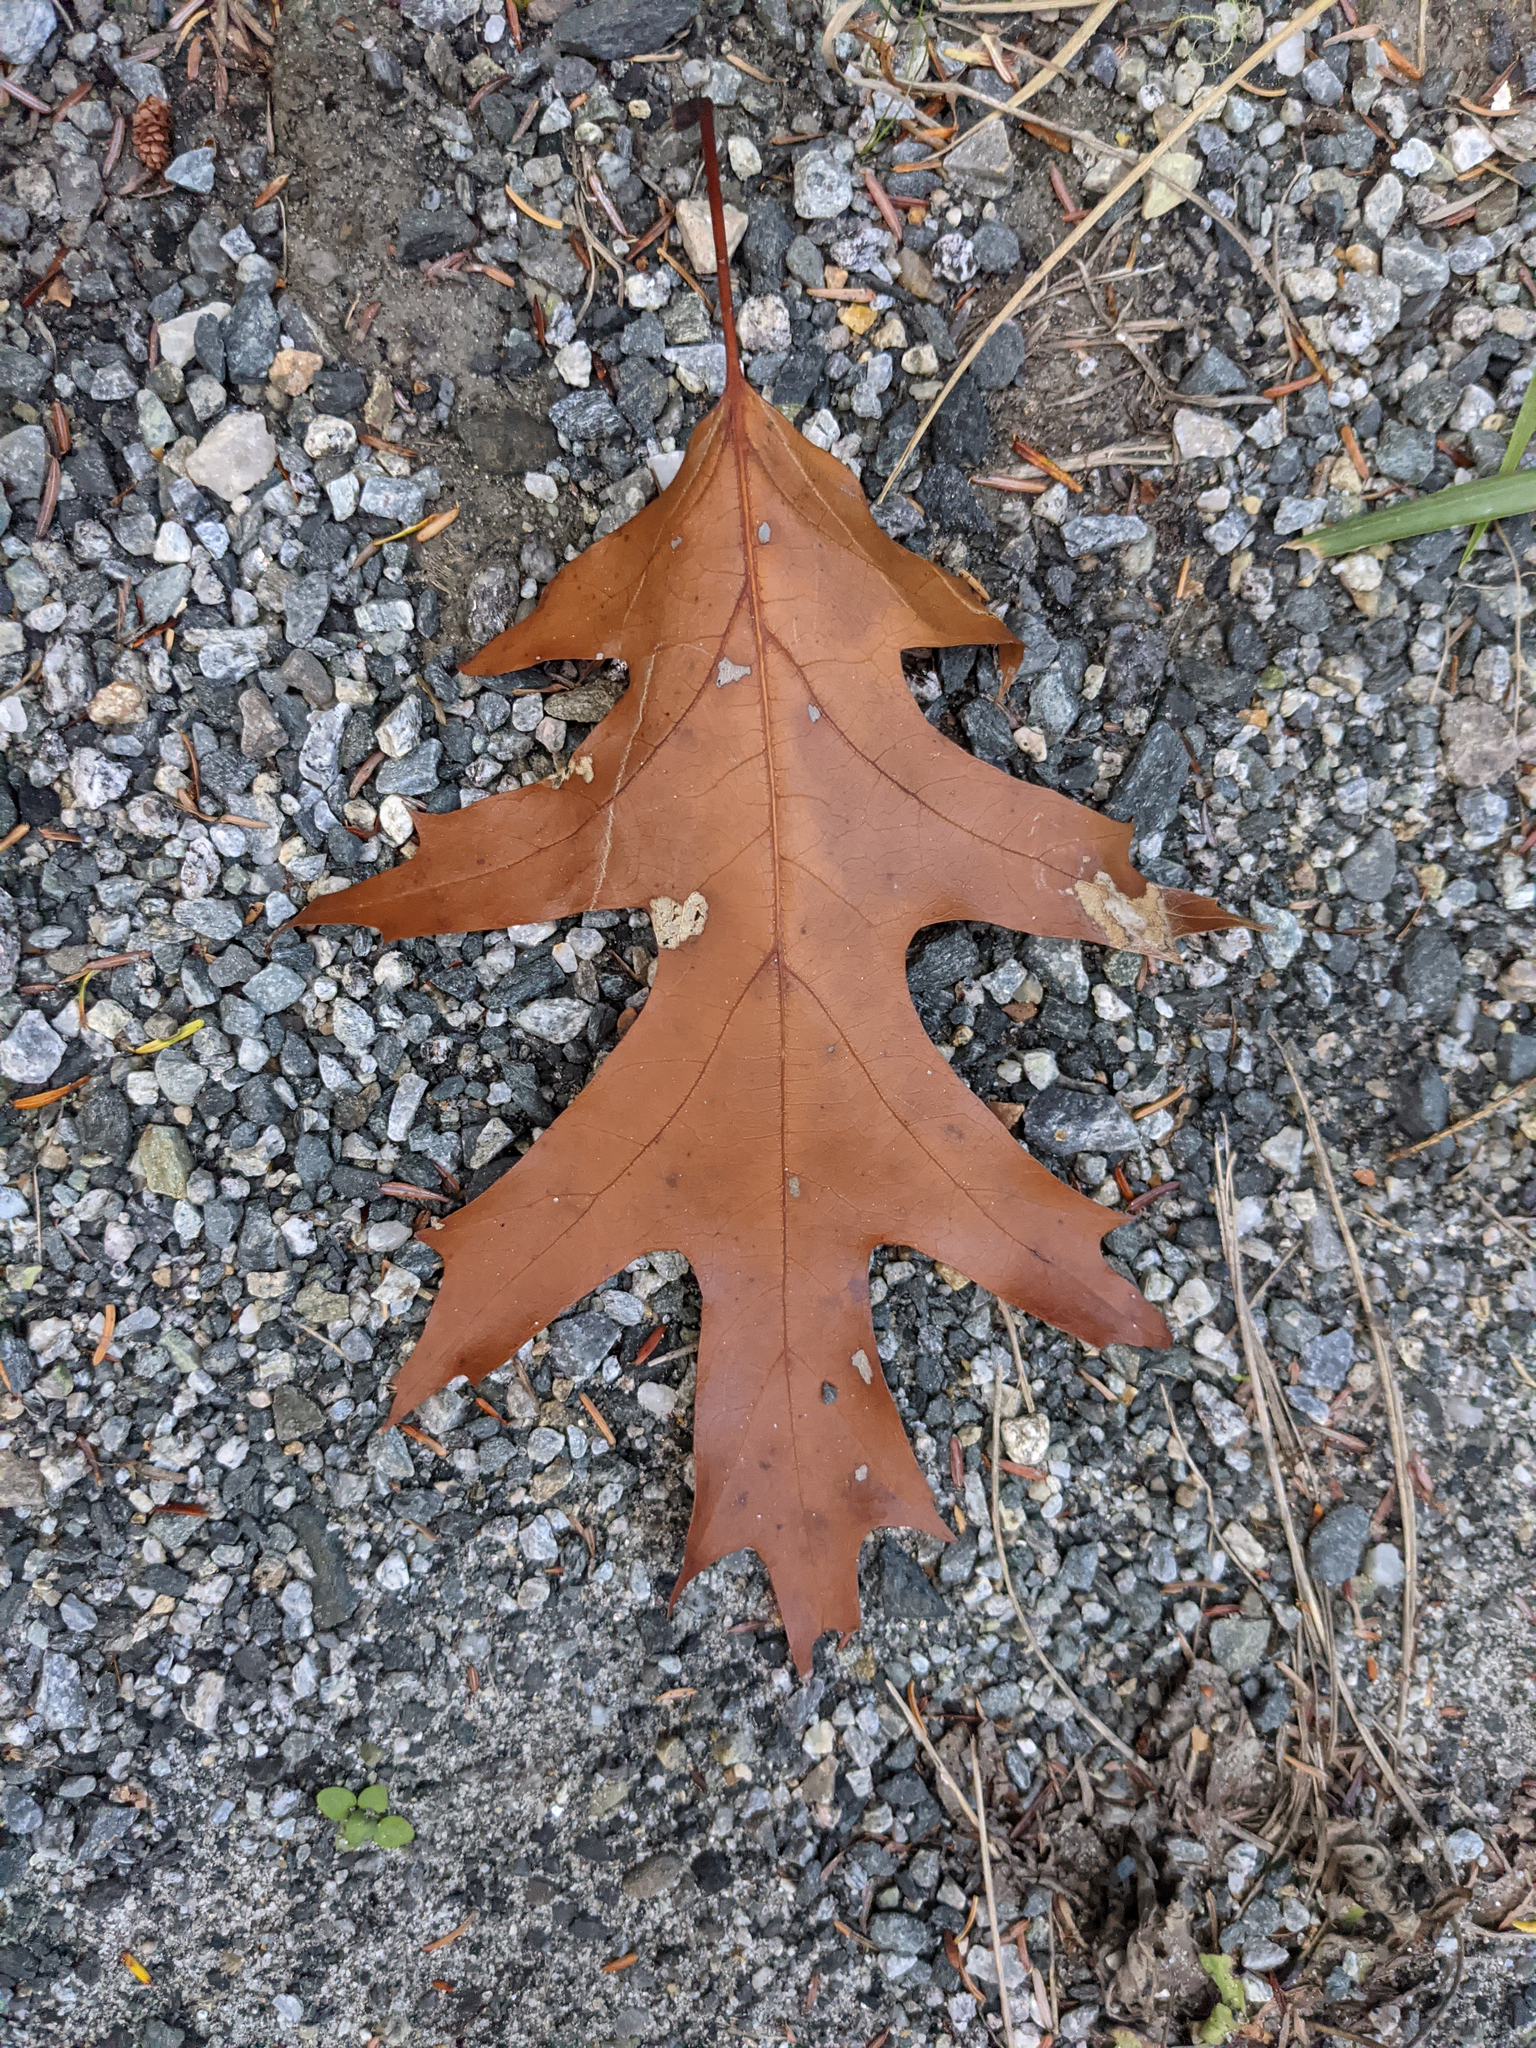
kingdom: Plantae
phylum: Tracheophyta
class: Magnoliopsida
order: Fagales
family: Fagaceae
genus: Quercus
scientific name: Quercus rubra
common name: Red oak
